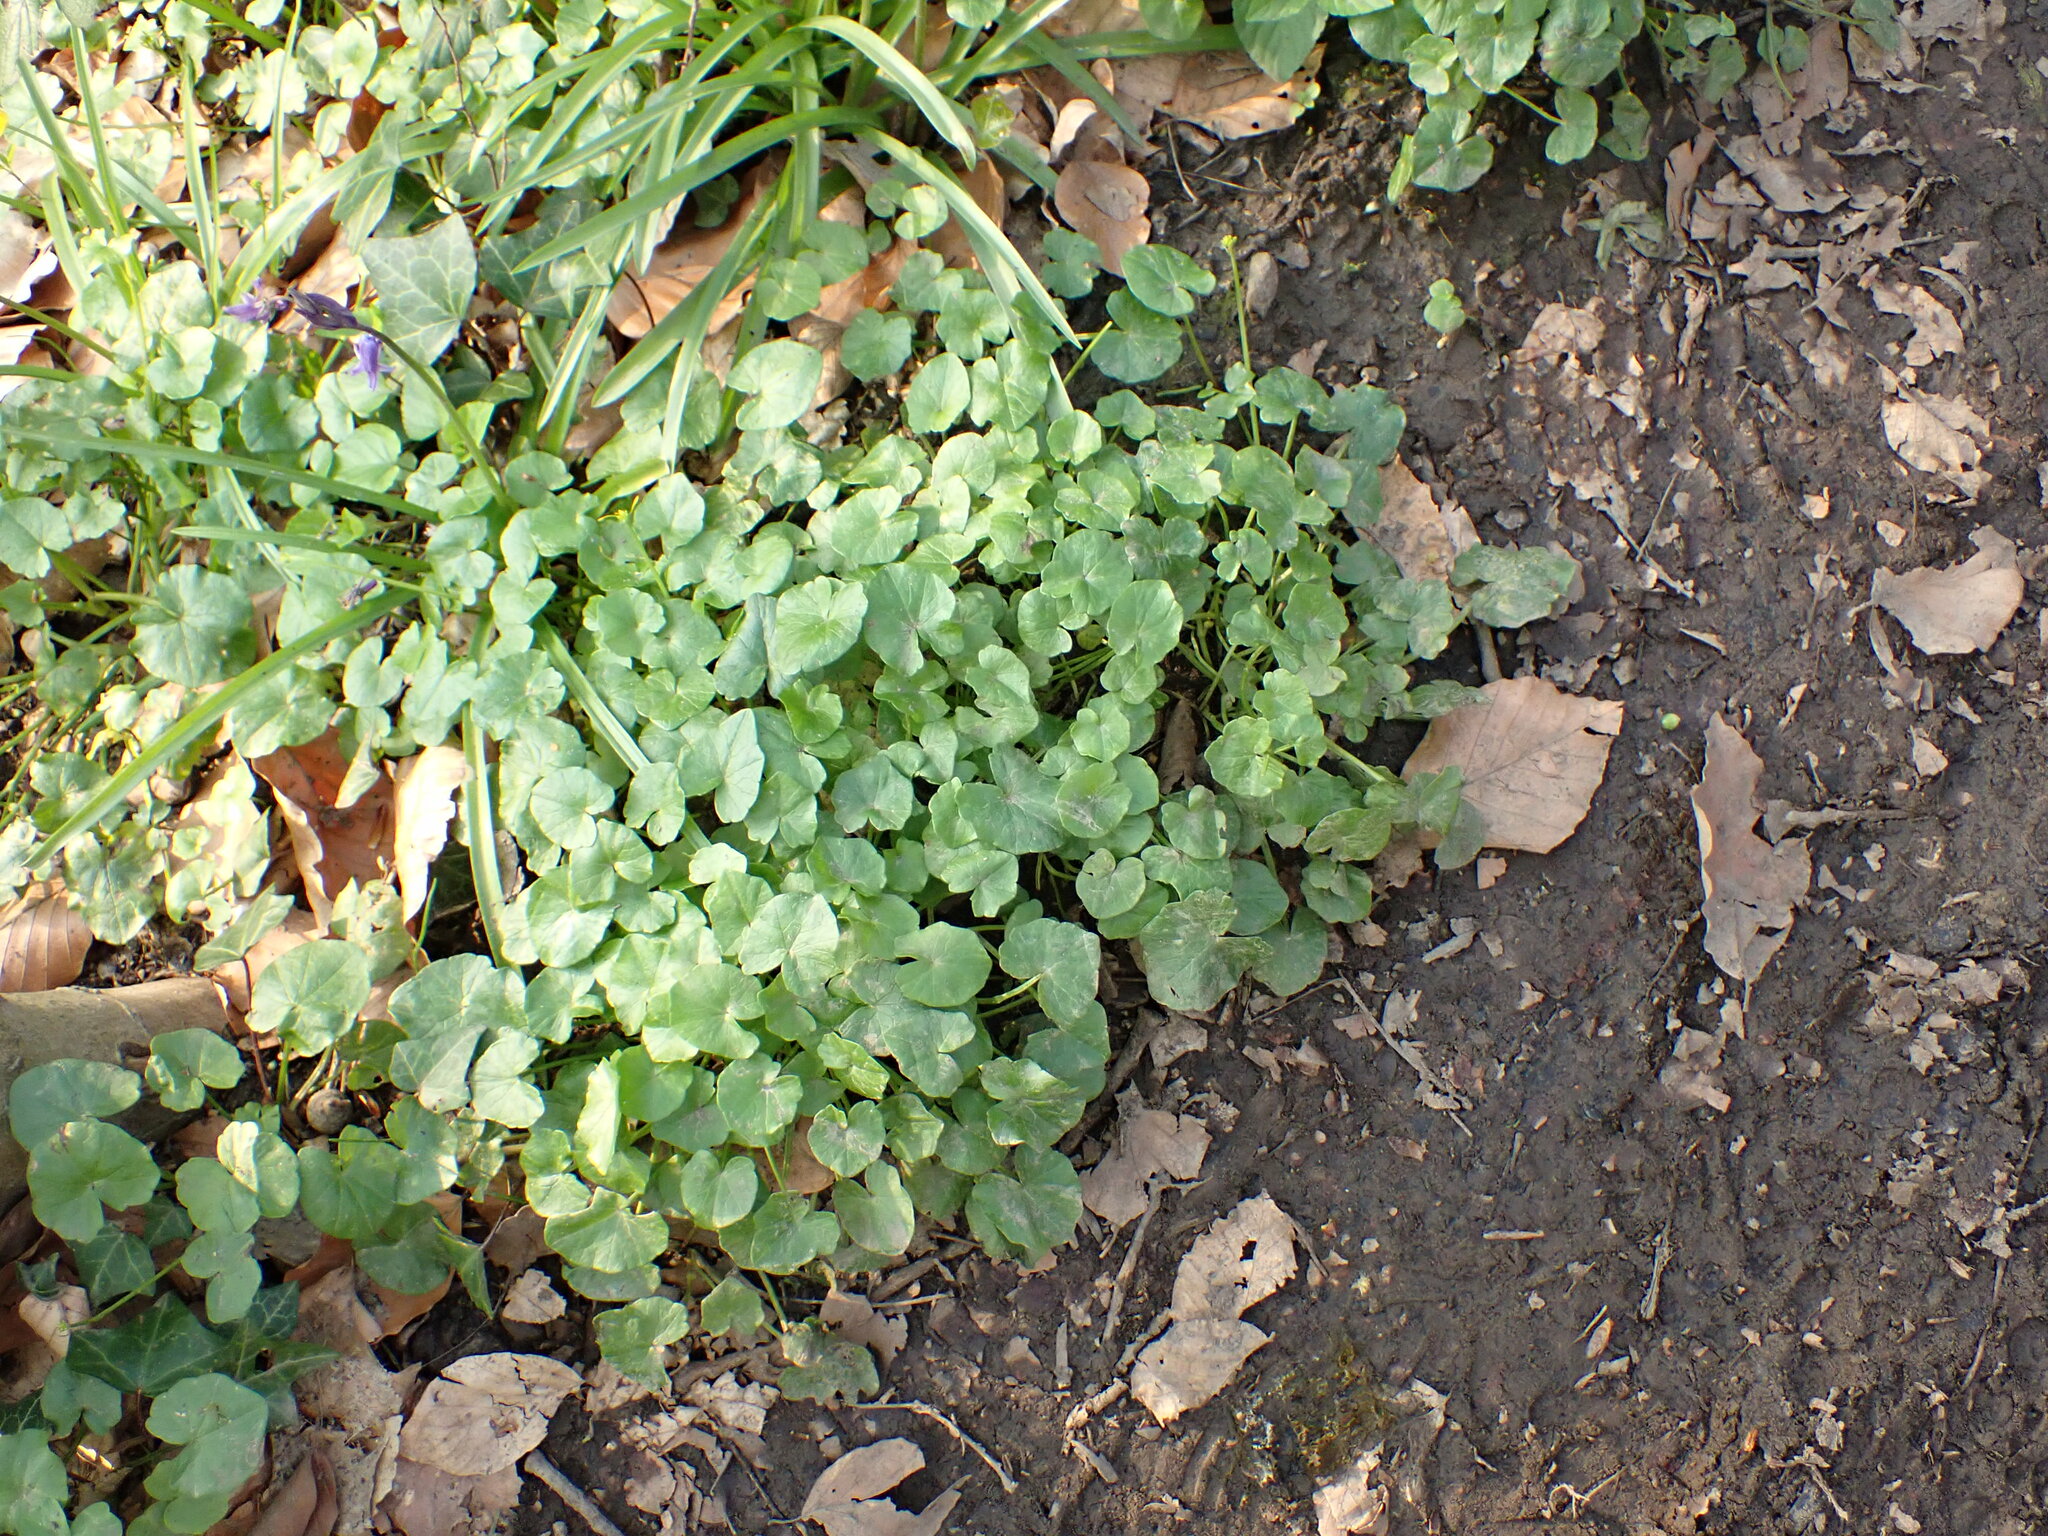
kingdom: Plantae
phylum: Tracheophyta
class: Magnoliopsida
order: Ranunculales
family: Ranunculaceae
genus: Ficaria
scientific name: Ficaria verna
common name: Lesser celandine
